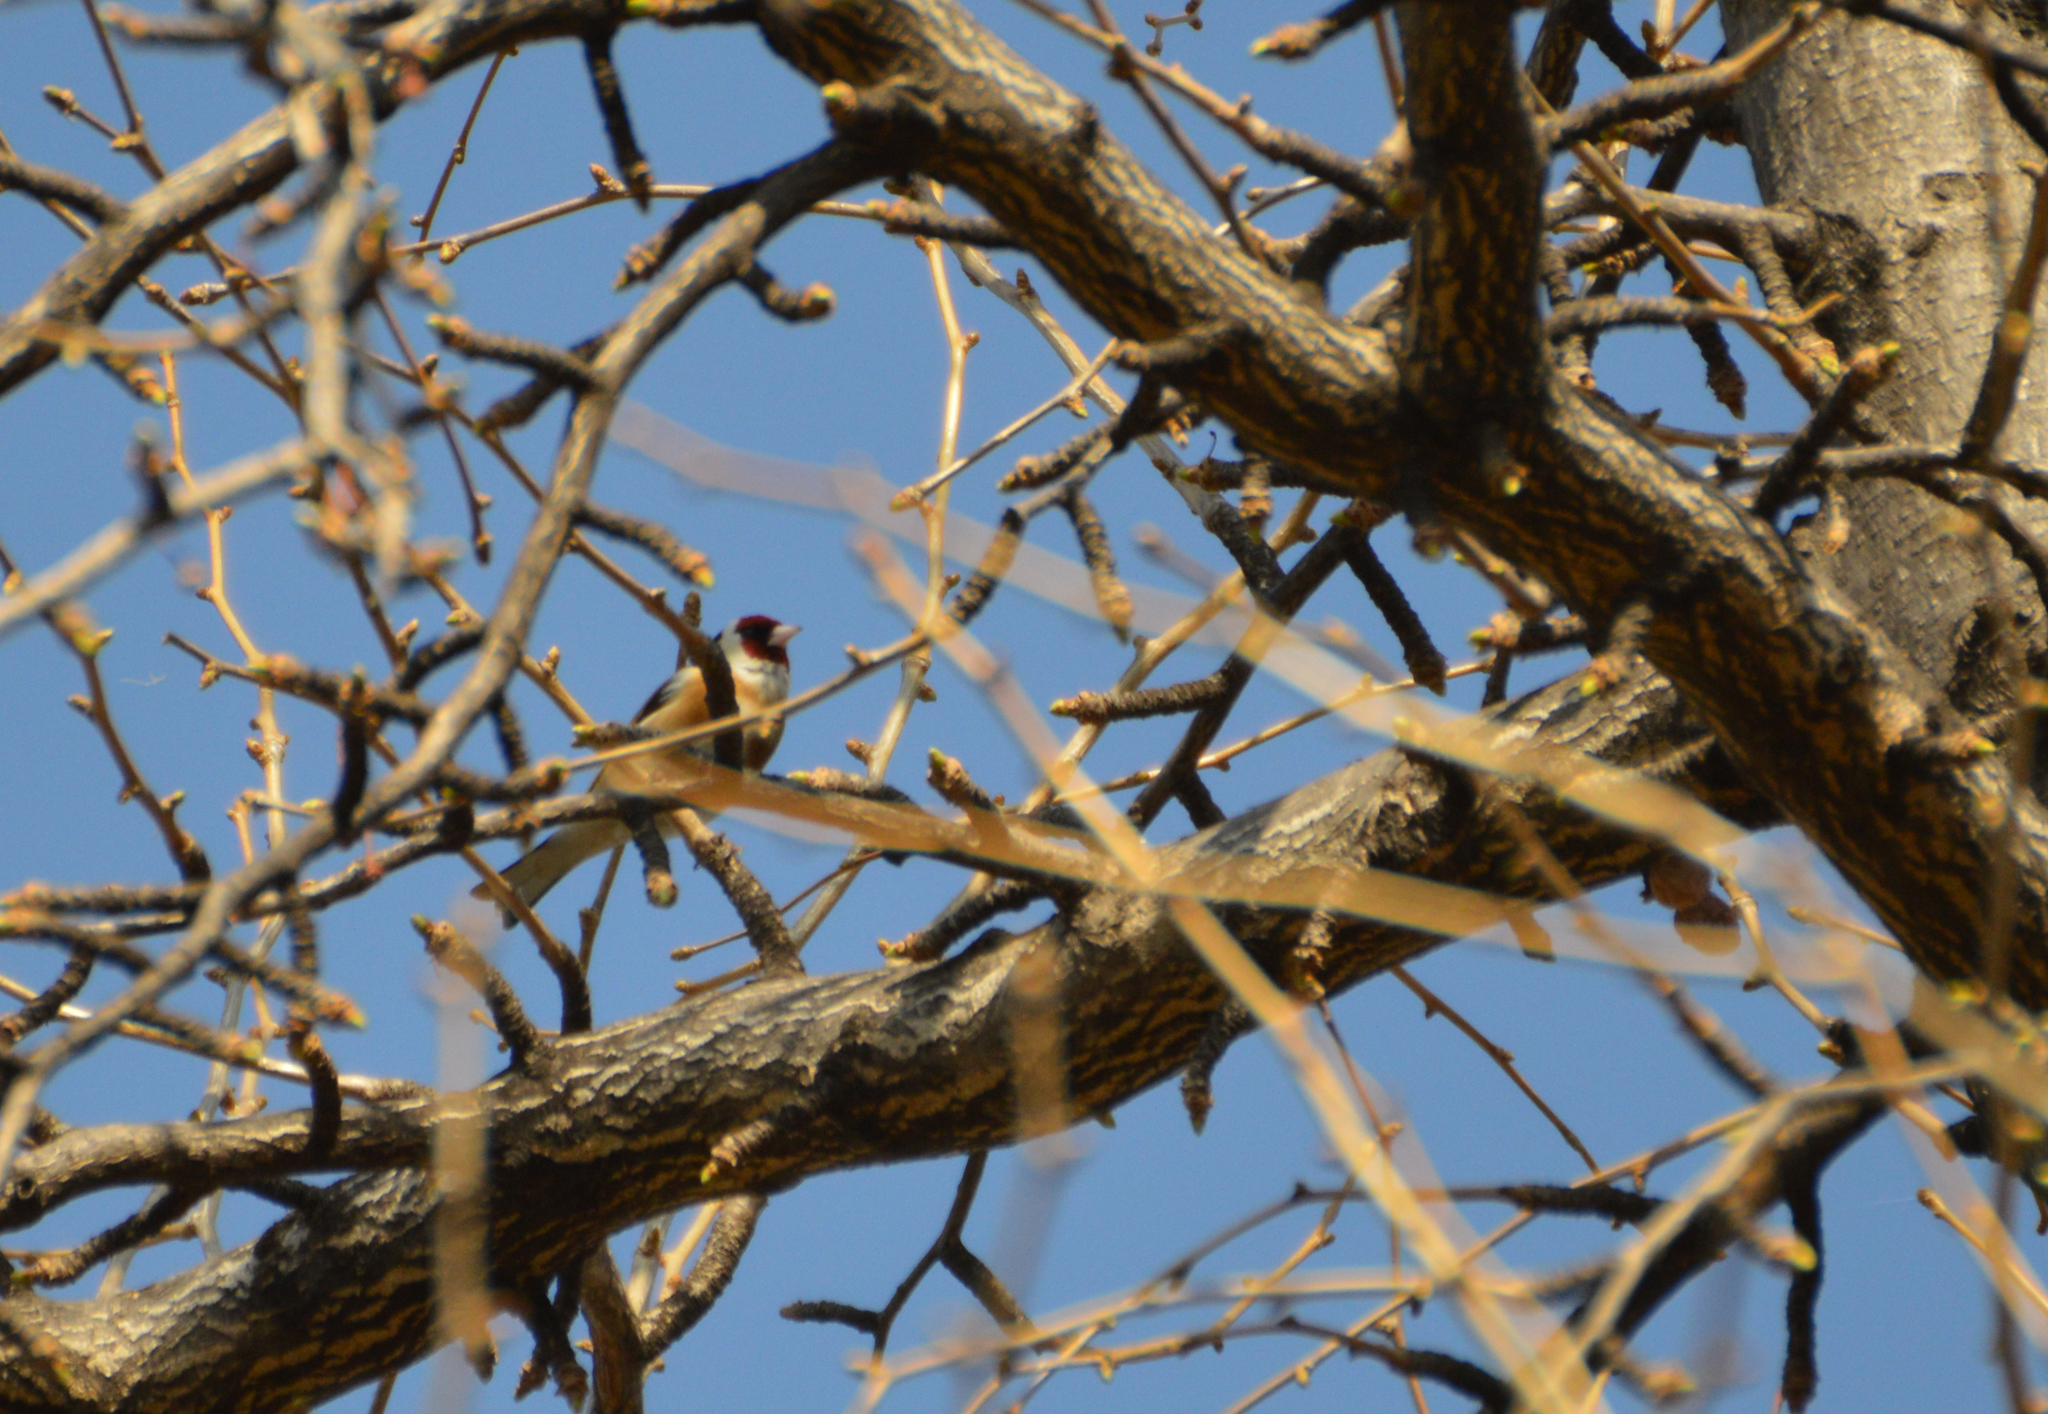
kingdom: Animalia
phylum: Chordata
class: Aves
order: Passeriformes
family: Fringillidae
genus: Carduelis
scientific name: Carduelis carduelis
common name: European goldfinch
